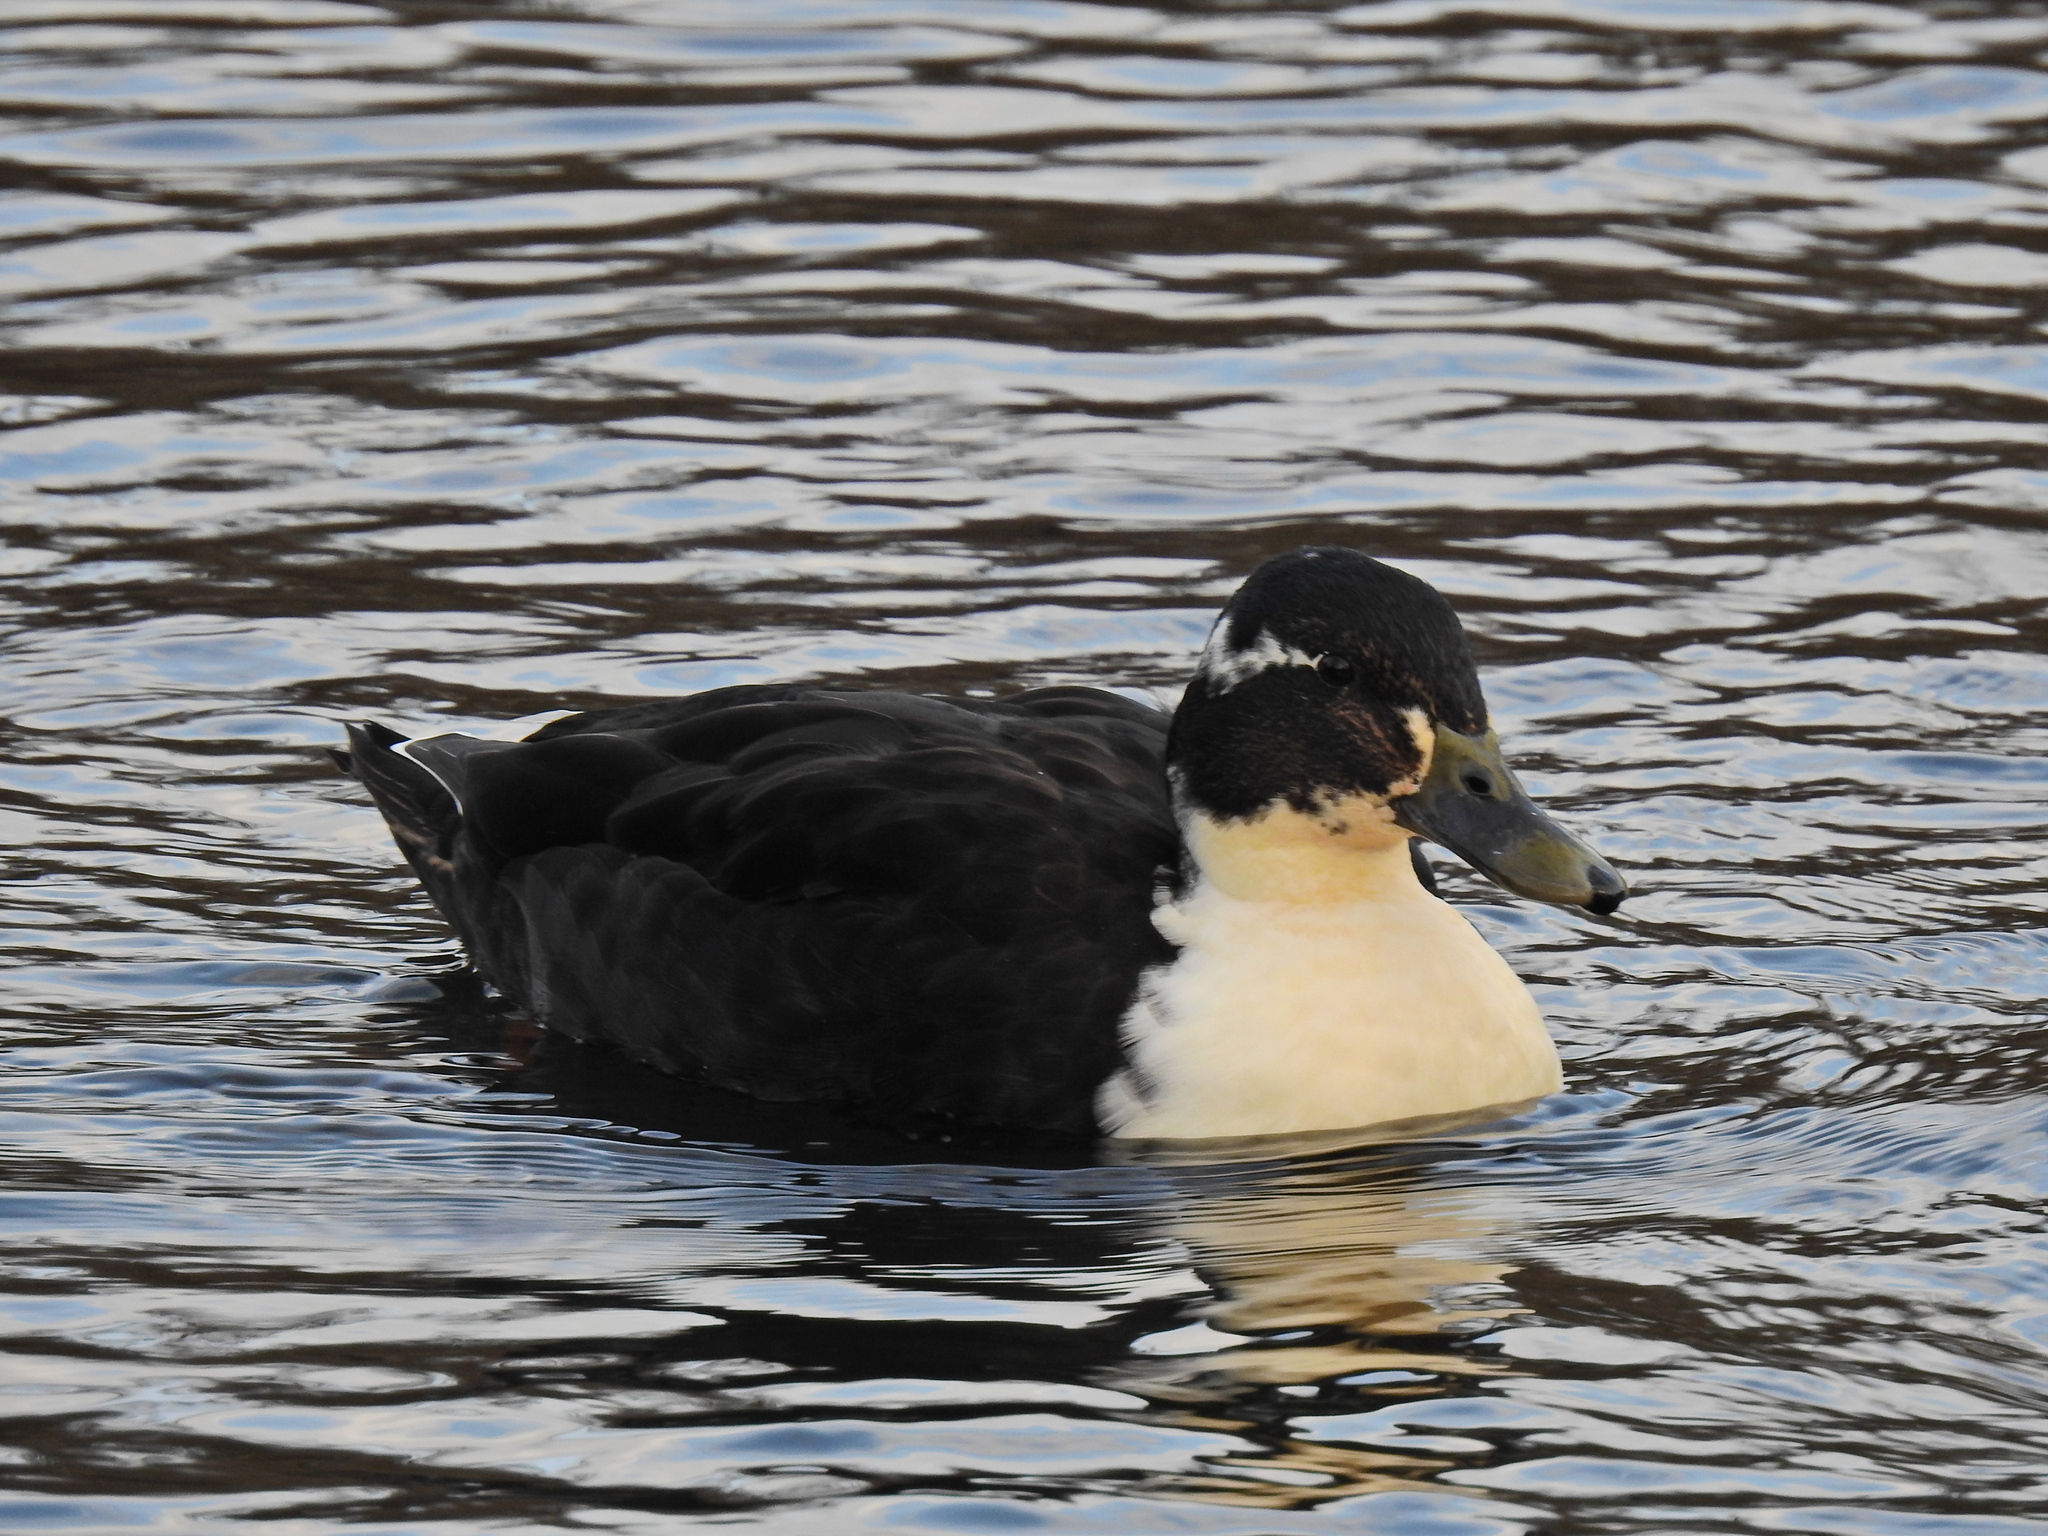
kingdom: Animalia
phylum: Chordata
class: Aves
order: Anseriformes
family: Anatidae
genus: Anas
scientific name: Anas platyrhynchos
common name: Mallard
